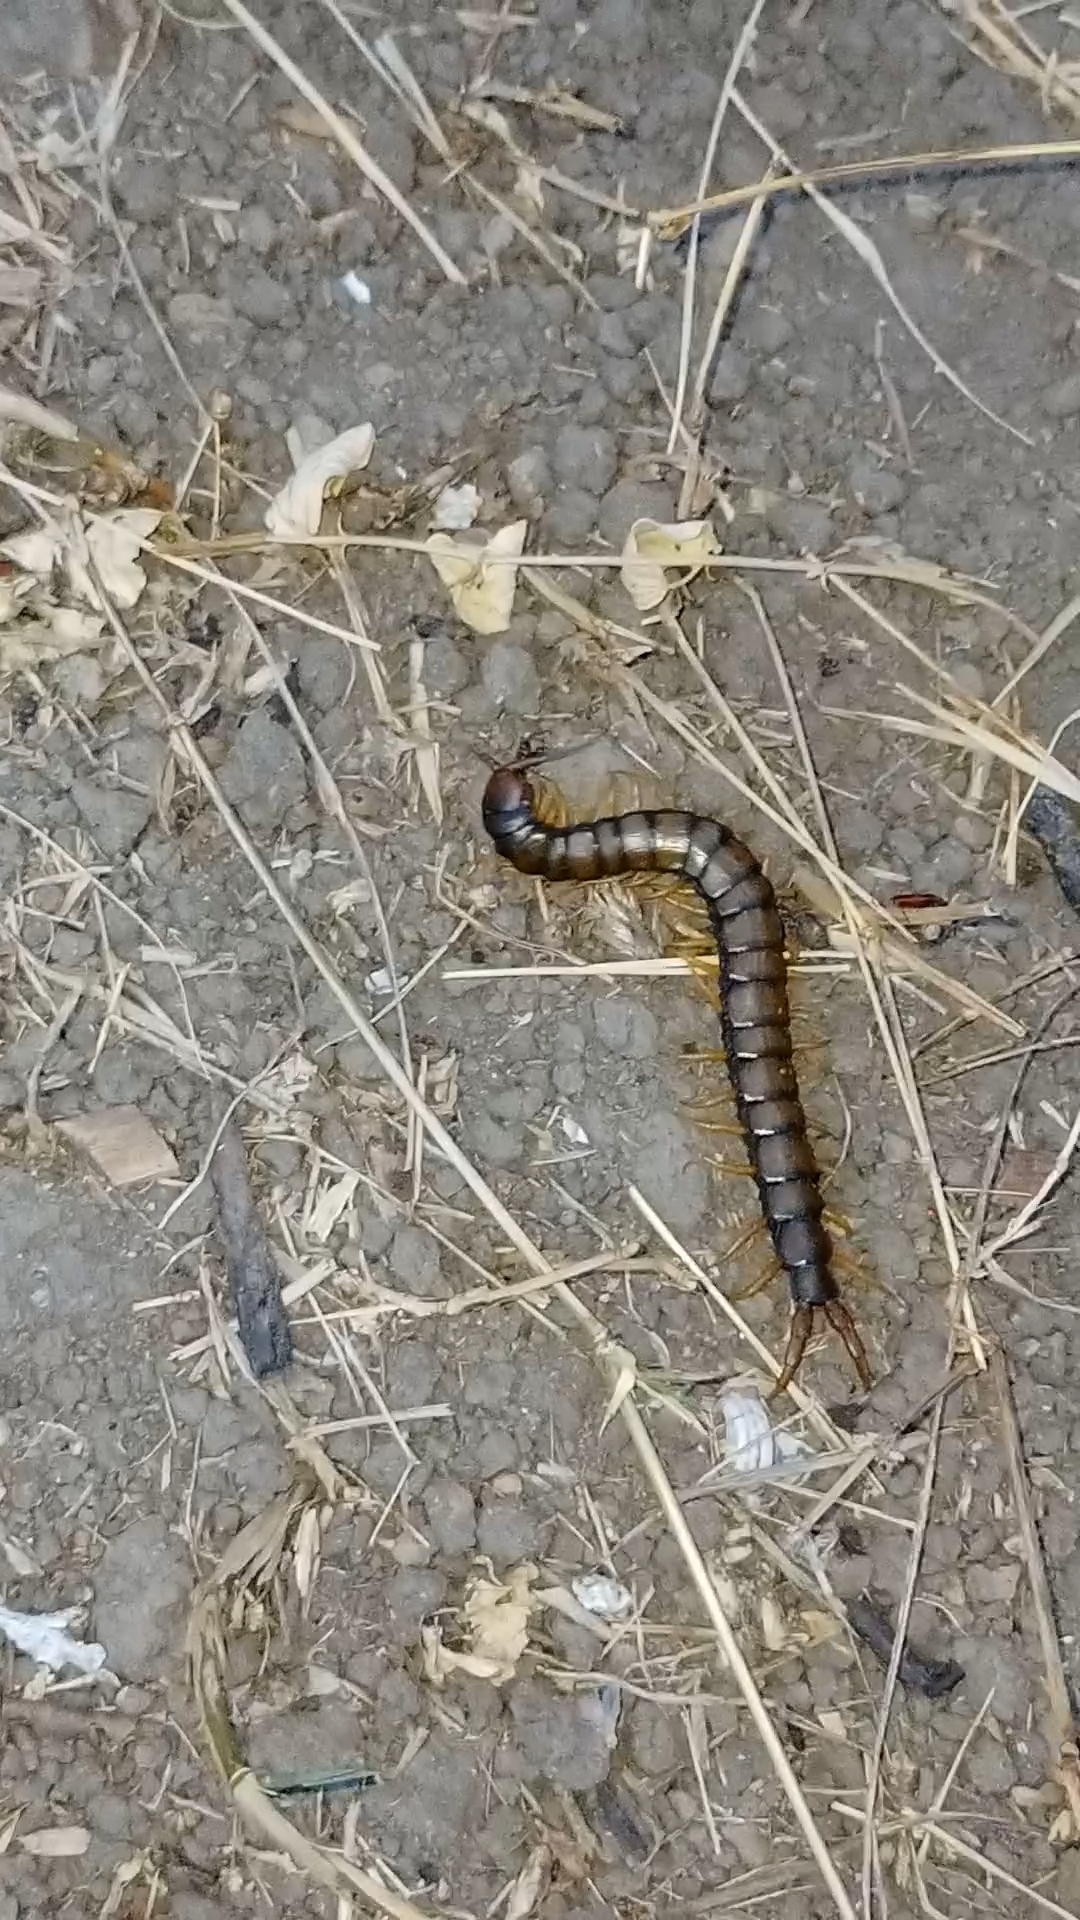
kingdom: Animalia
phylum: Arthropoda
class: Chilopoda
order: Scolopendromorpha
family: Scolopendridae
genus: Scolopendra
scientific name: Scolopendra cingulata
